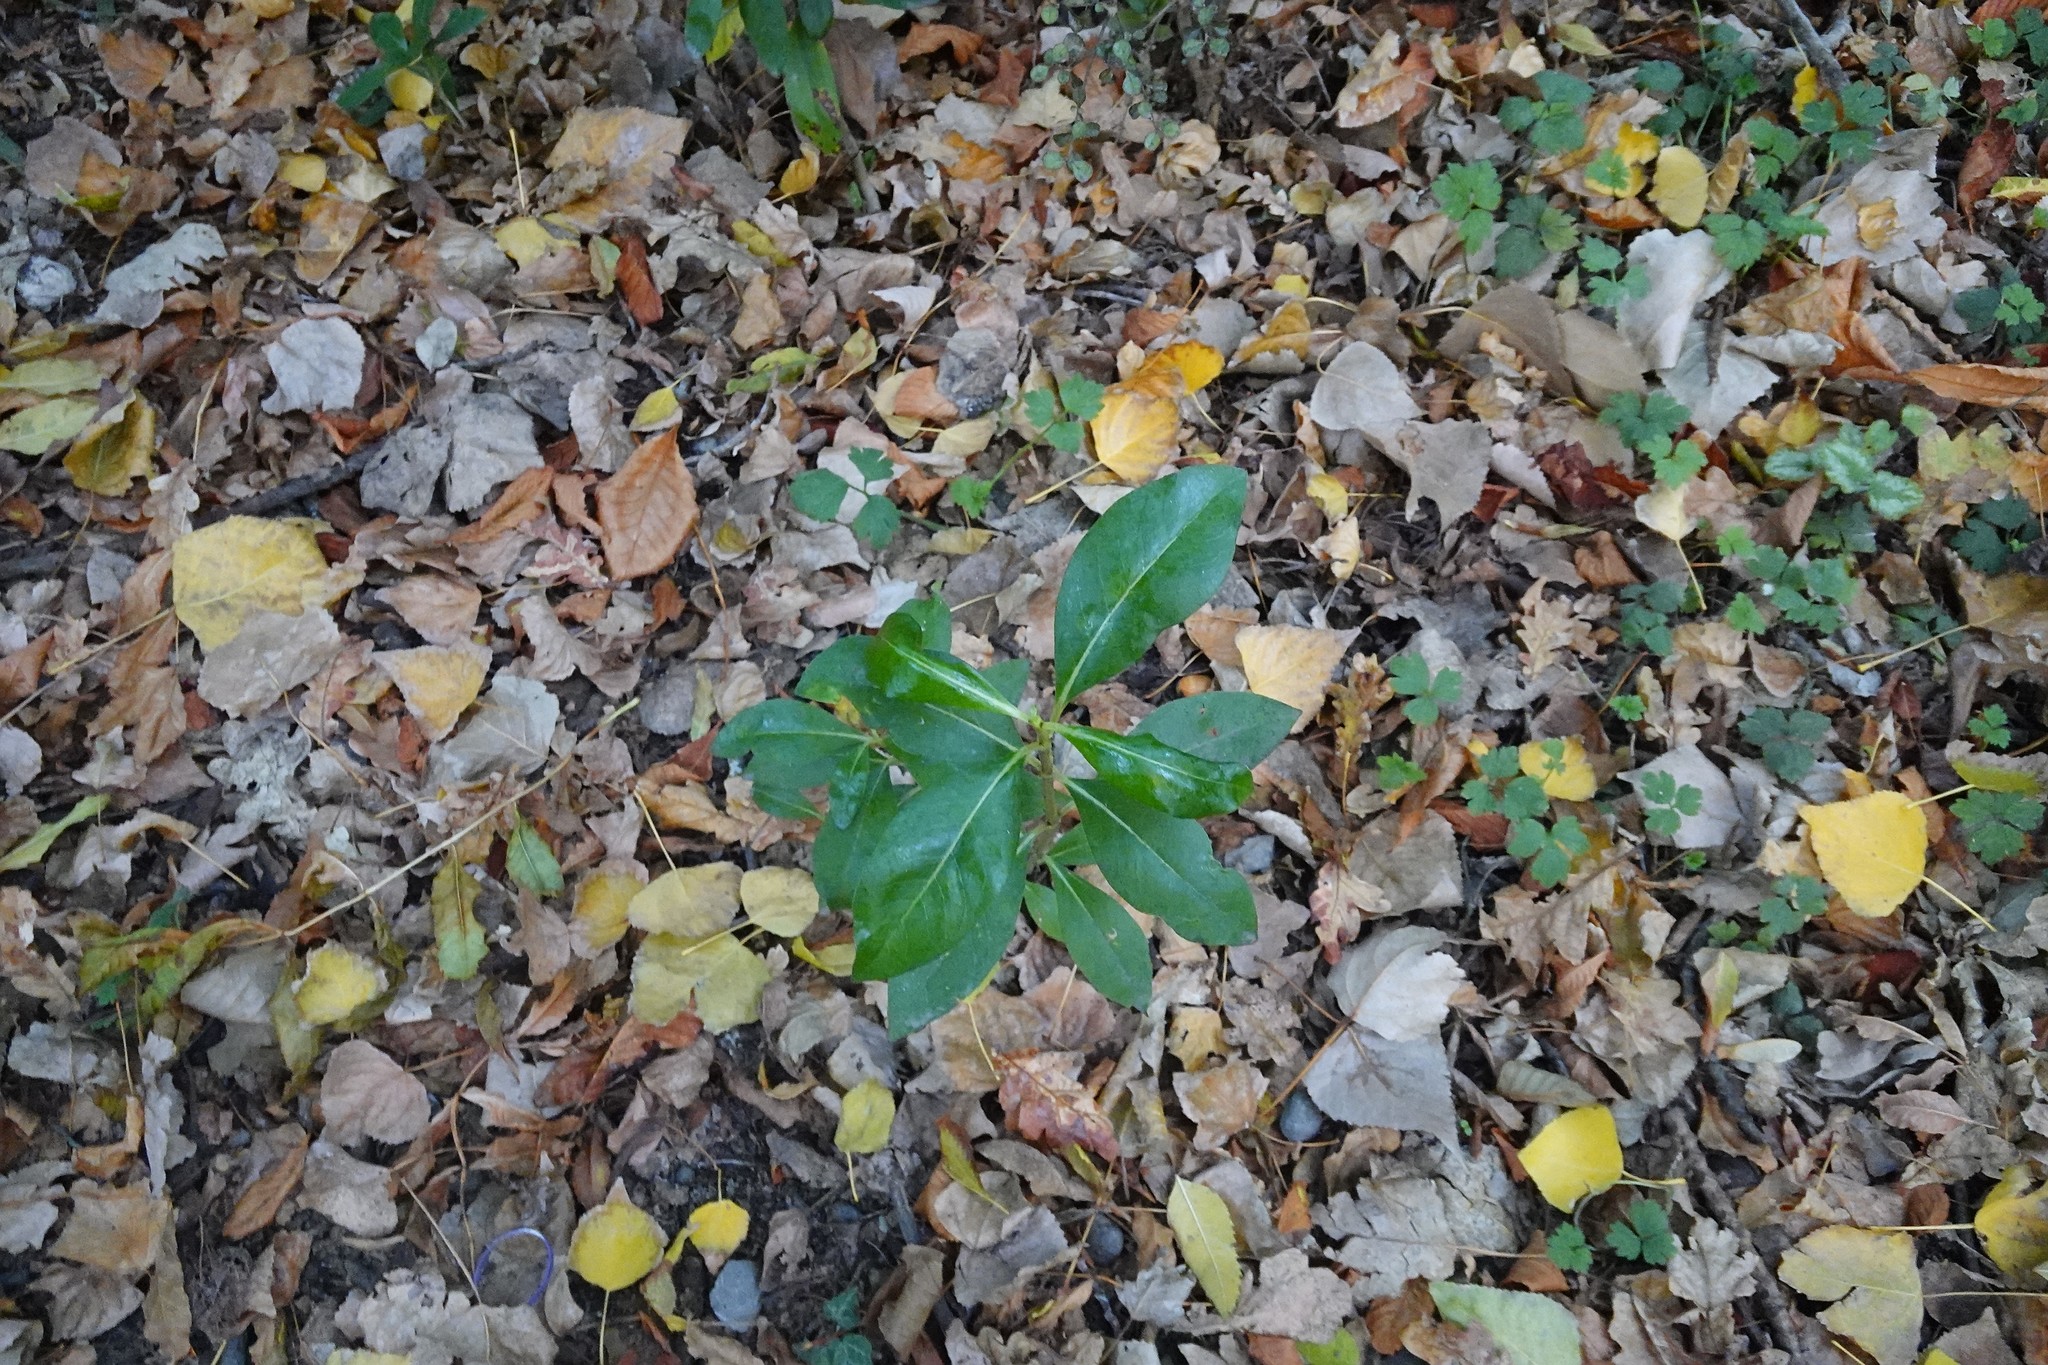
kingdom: Plantae
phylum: Tracheophyta
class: Magnoliopsida
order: Gentianales
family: Rubiaceae
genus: Coprosma
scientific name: Coprosma robusta
